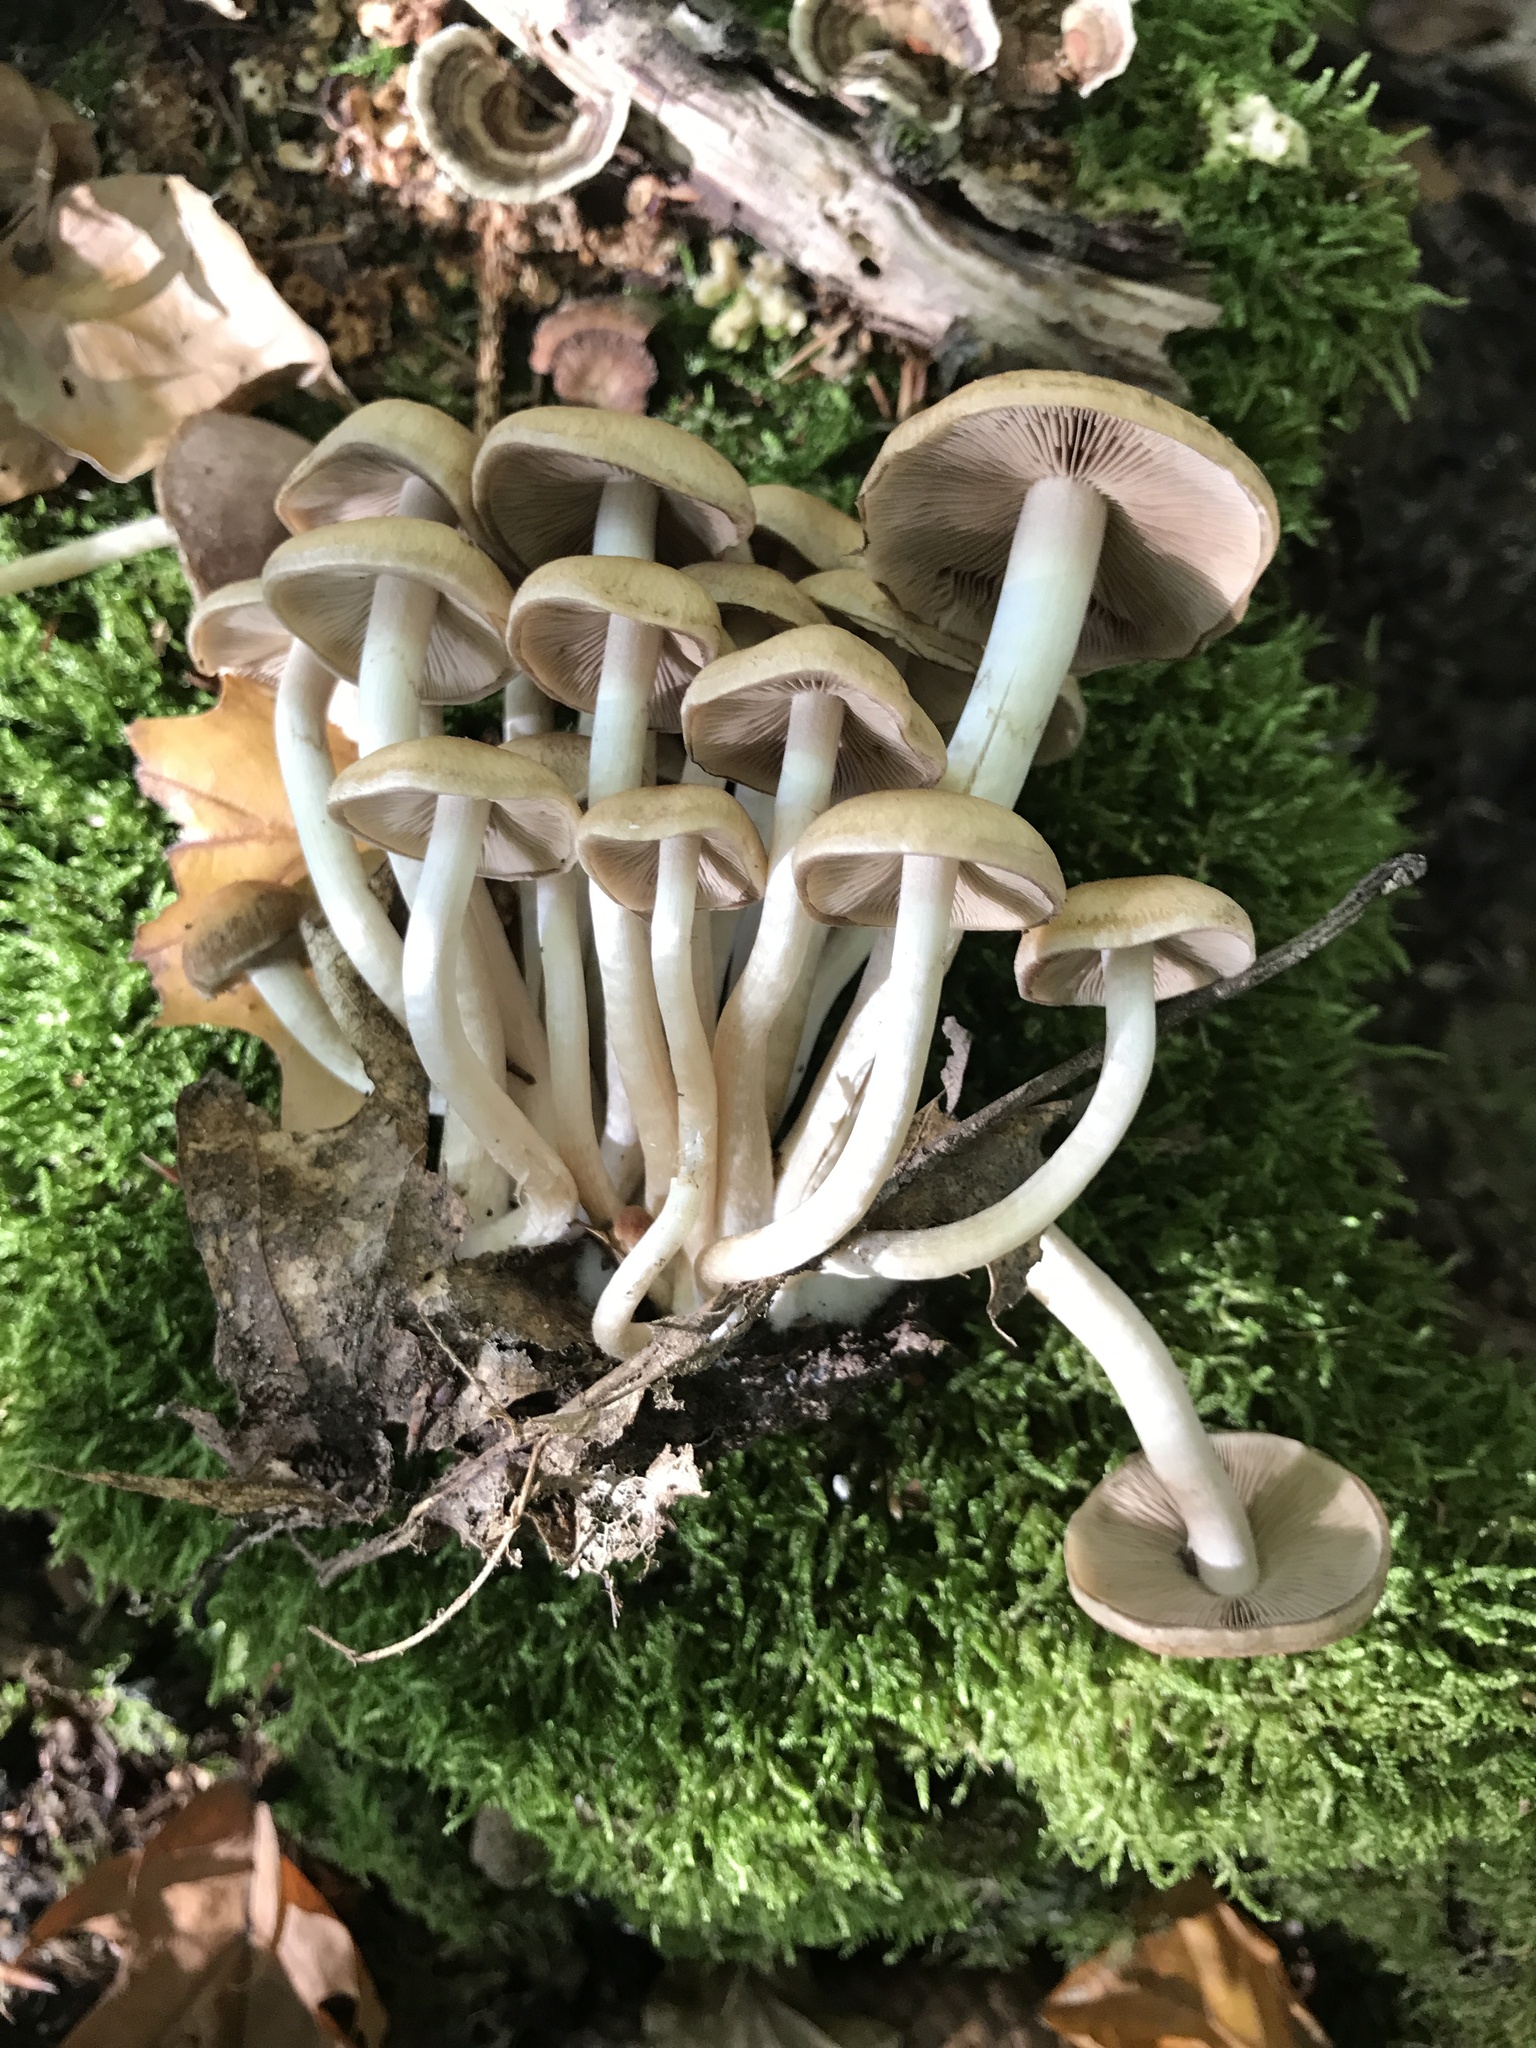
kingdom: Fungi
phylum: Basidiomycota
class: Agaricomycetes
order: Agaricales
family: Psathyrellaceae
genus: Psathyrella
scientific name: Psathyrella piluliformis
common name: Common stump brittlestem
